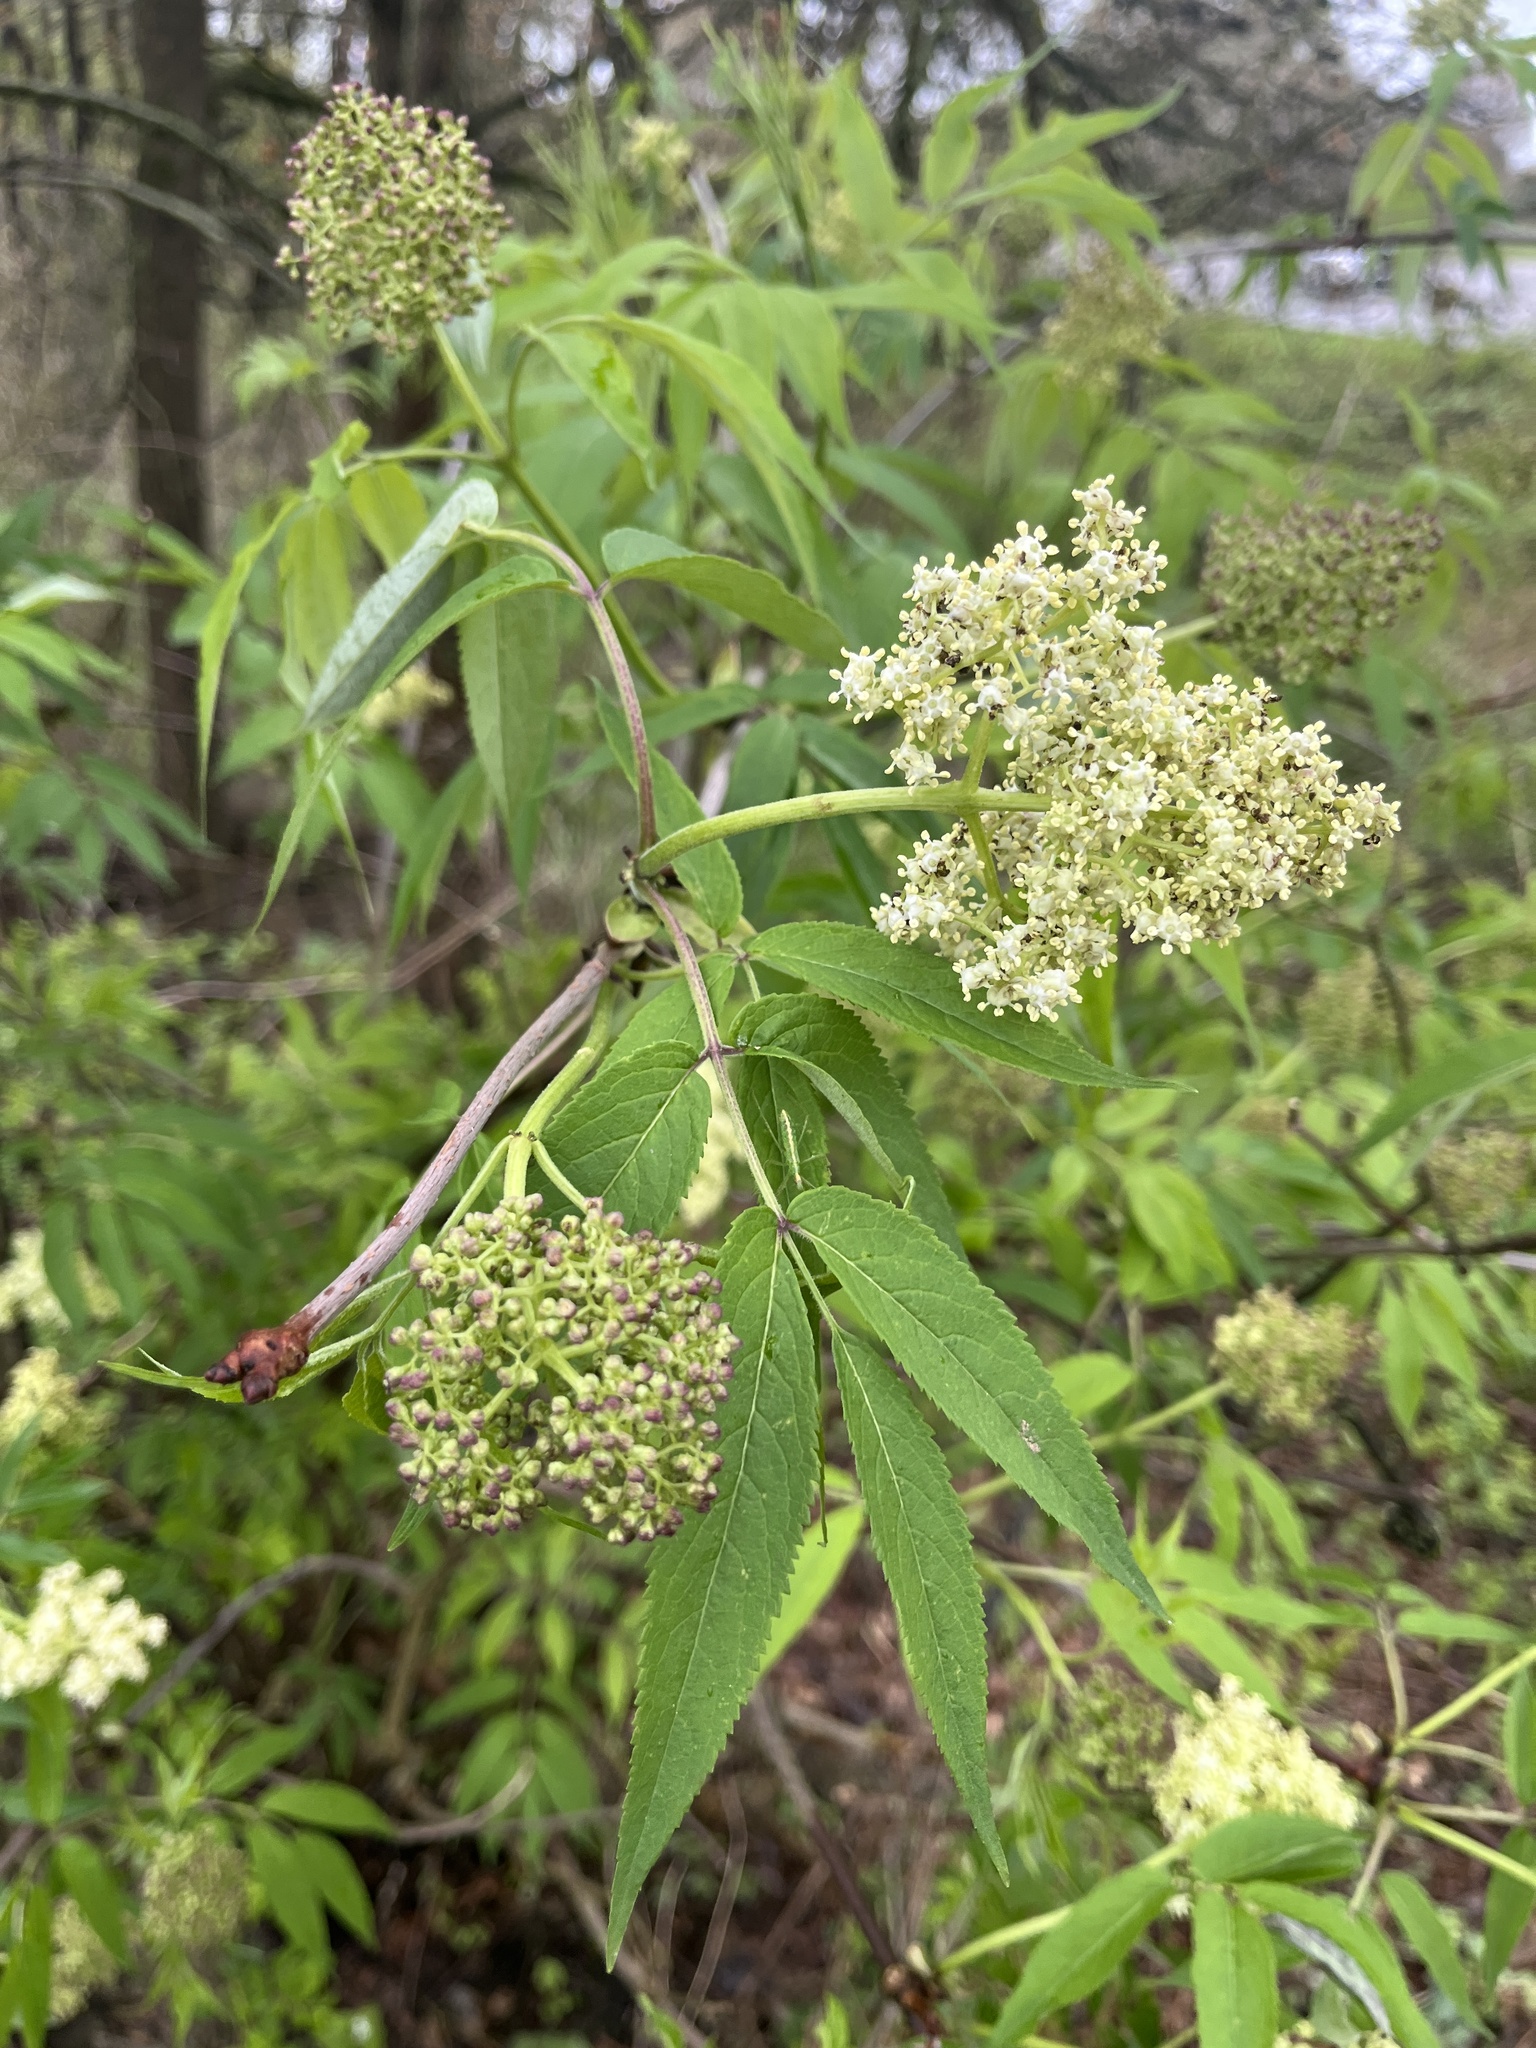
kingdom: Plantae
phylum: Tracheophyta
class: Magnoliopsida
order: Dipsacales
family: Viburnaceae
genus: Sambucus
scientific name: Sambucus racemosa
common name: Red-berried elder
